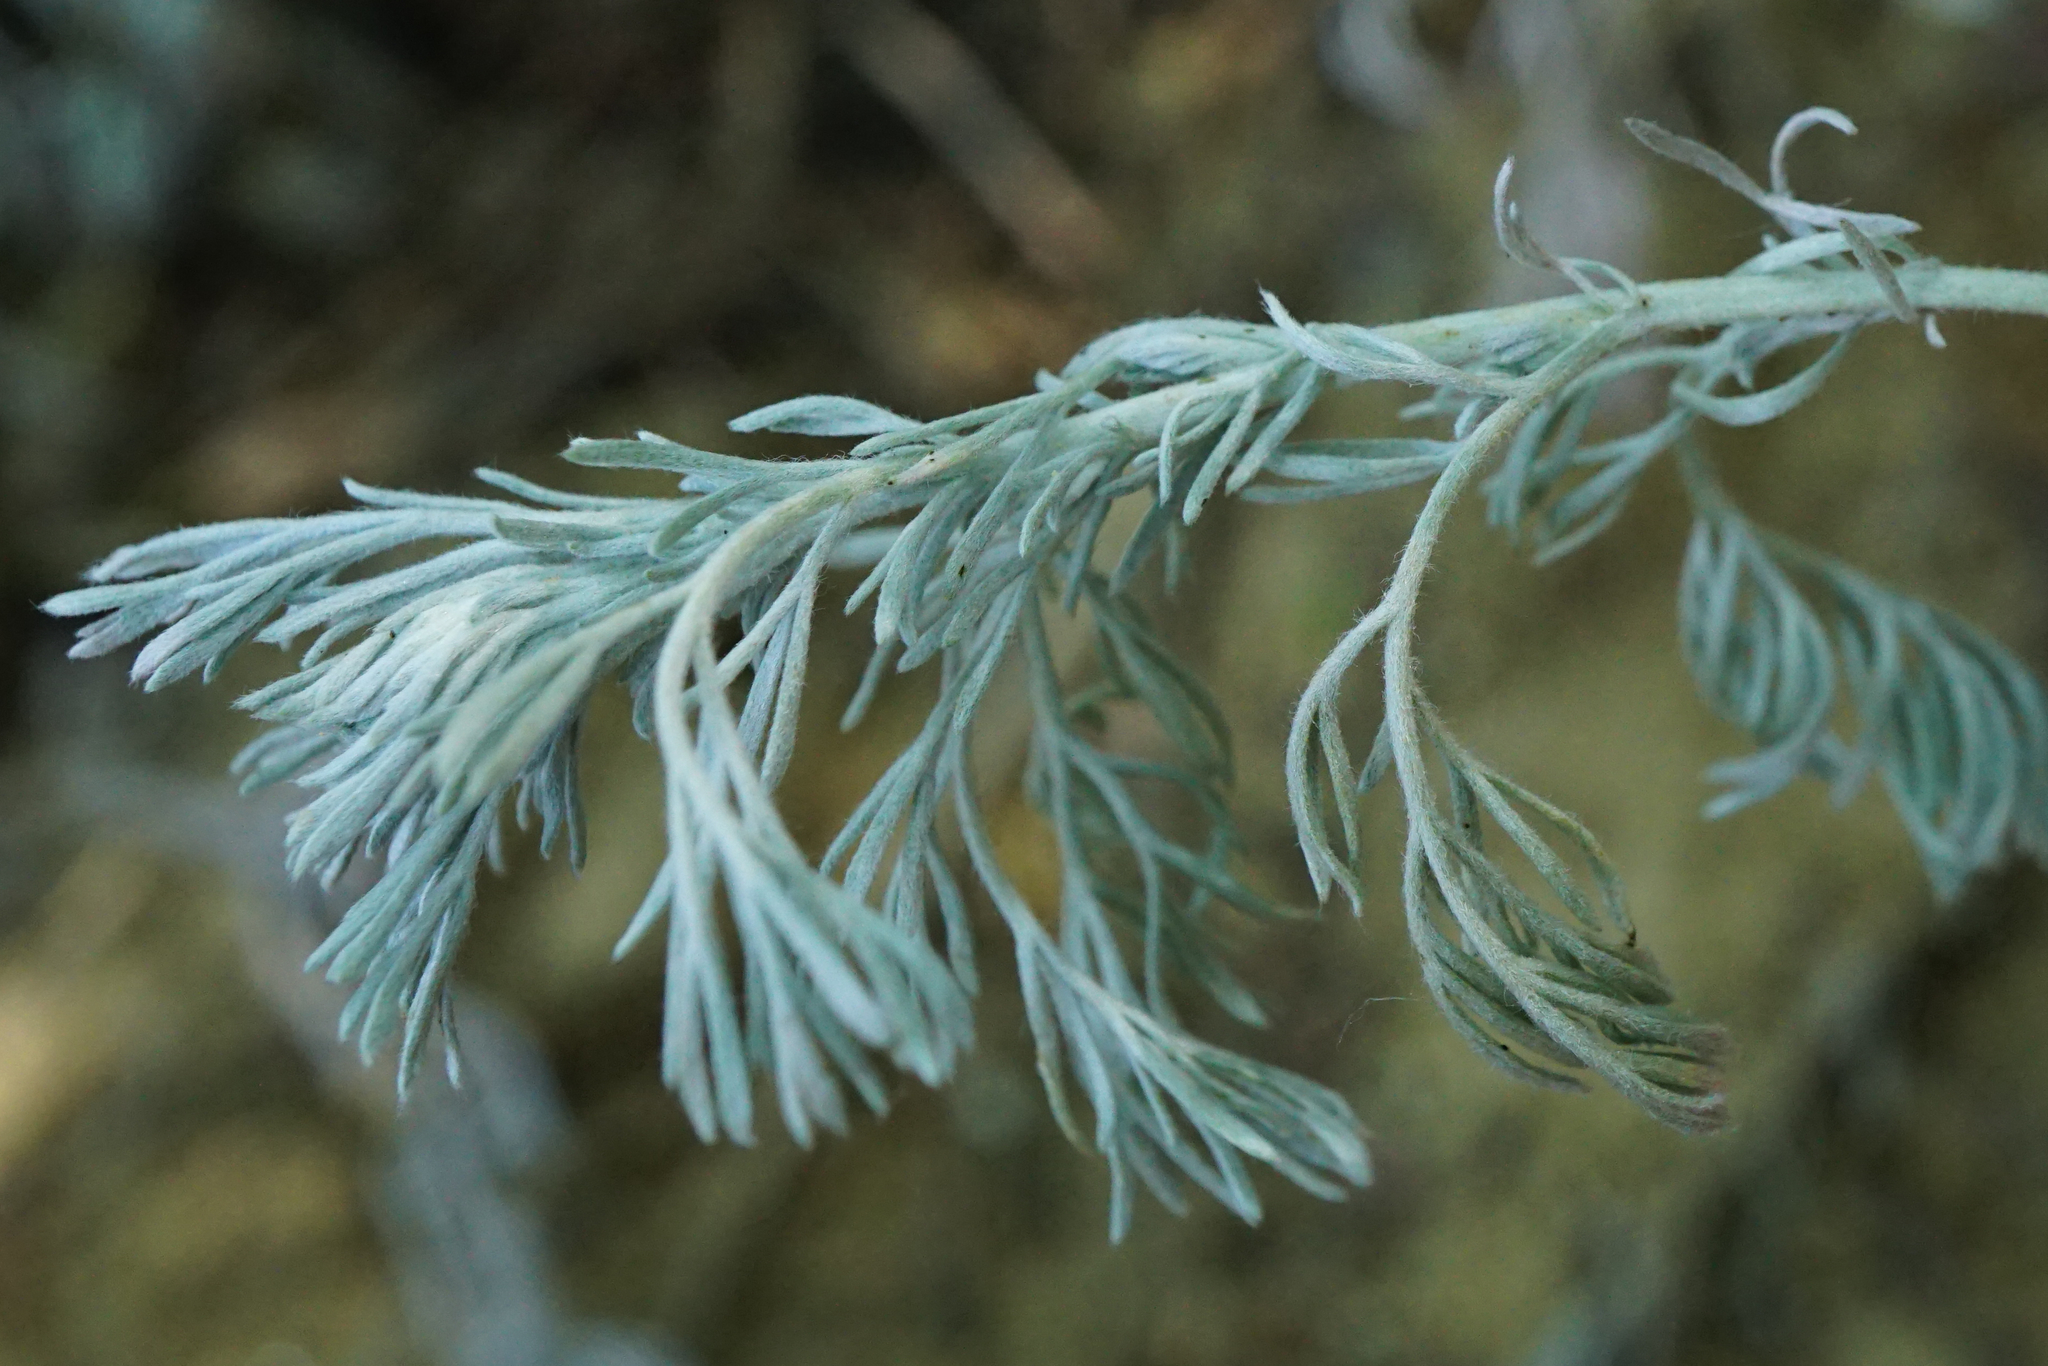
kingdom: Plantae
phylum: Tracheophyta
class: Magnoliopsida
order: Asterales
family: Asteraceae
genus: Artemisia
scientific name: Artemisia austriaca
